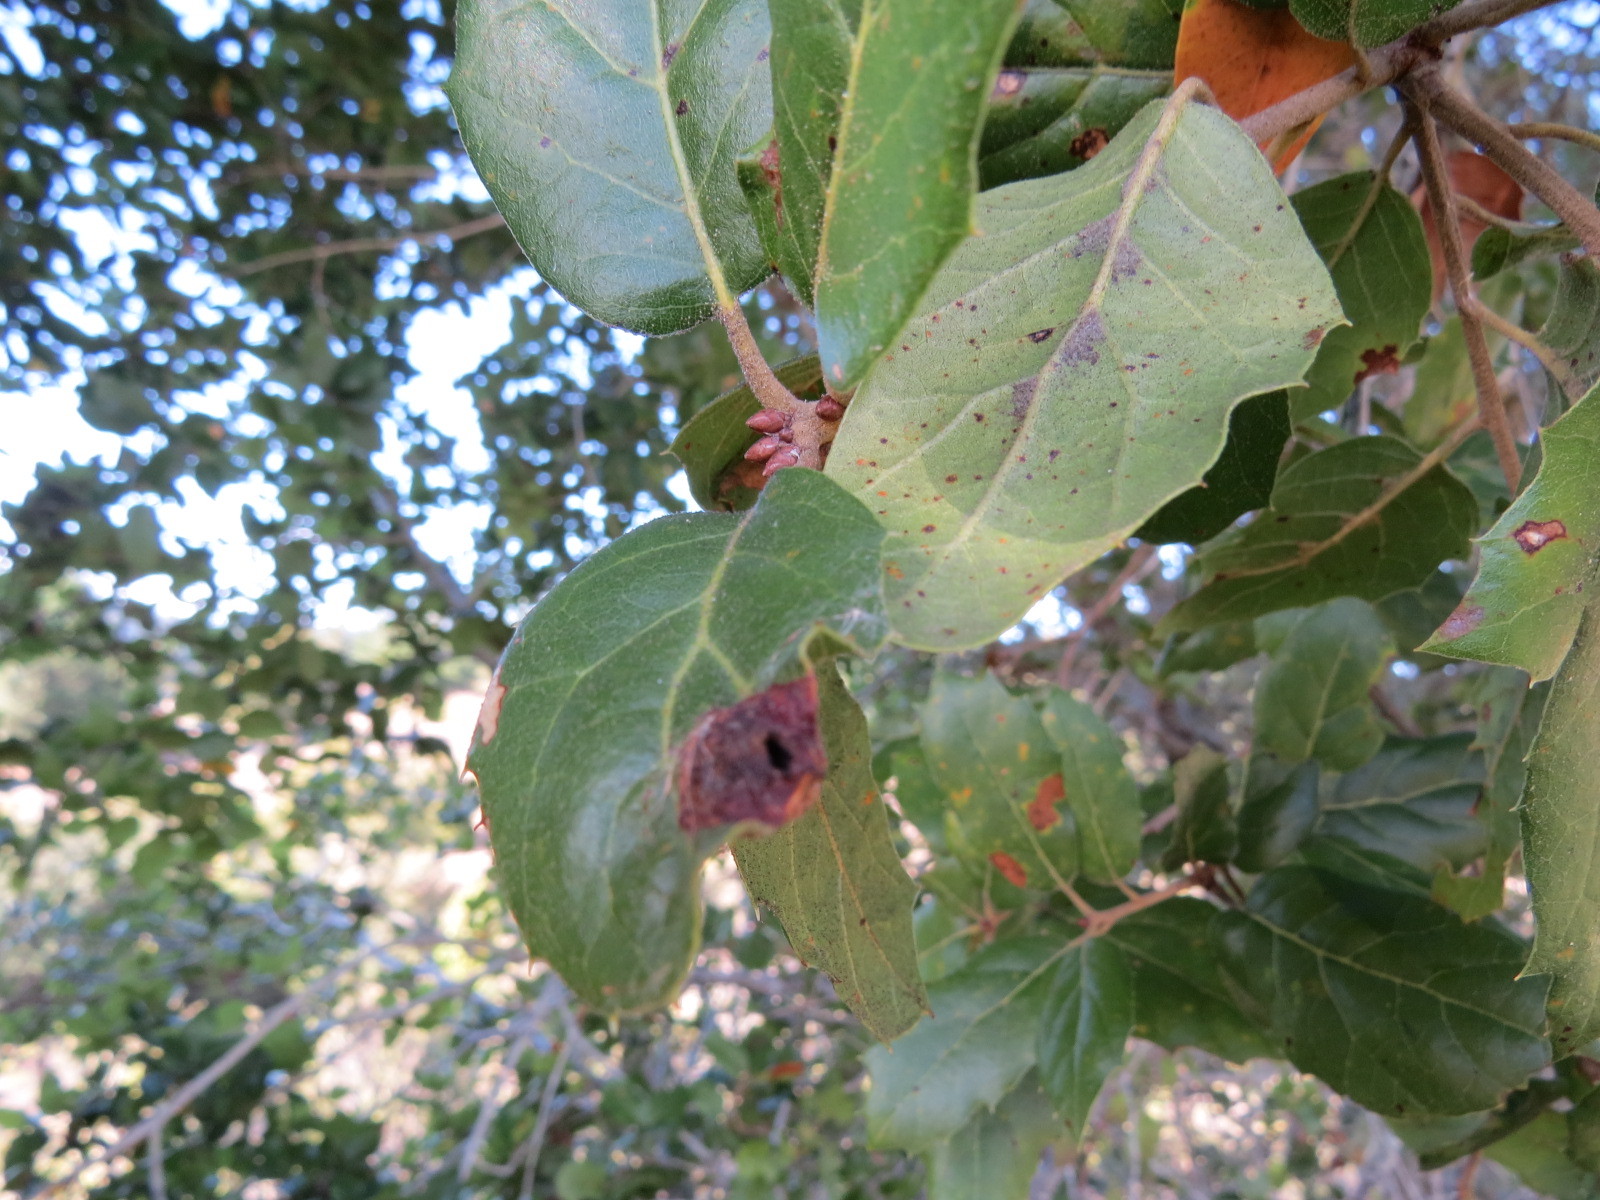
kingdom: Animalia
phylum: Arthropoda
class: Insecta
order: Hymenoptera
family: Cynipidae
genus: Callirhytis
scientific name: Callirhytis
